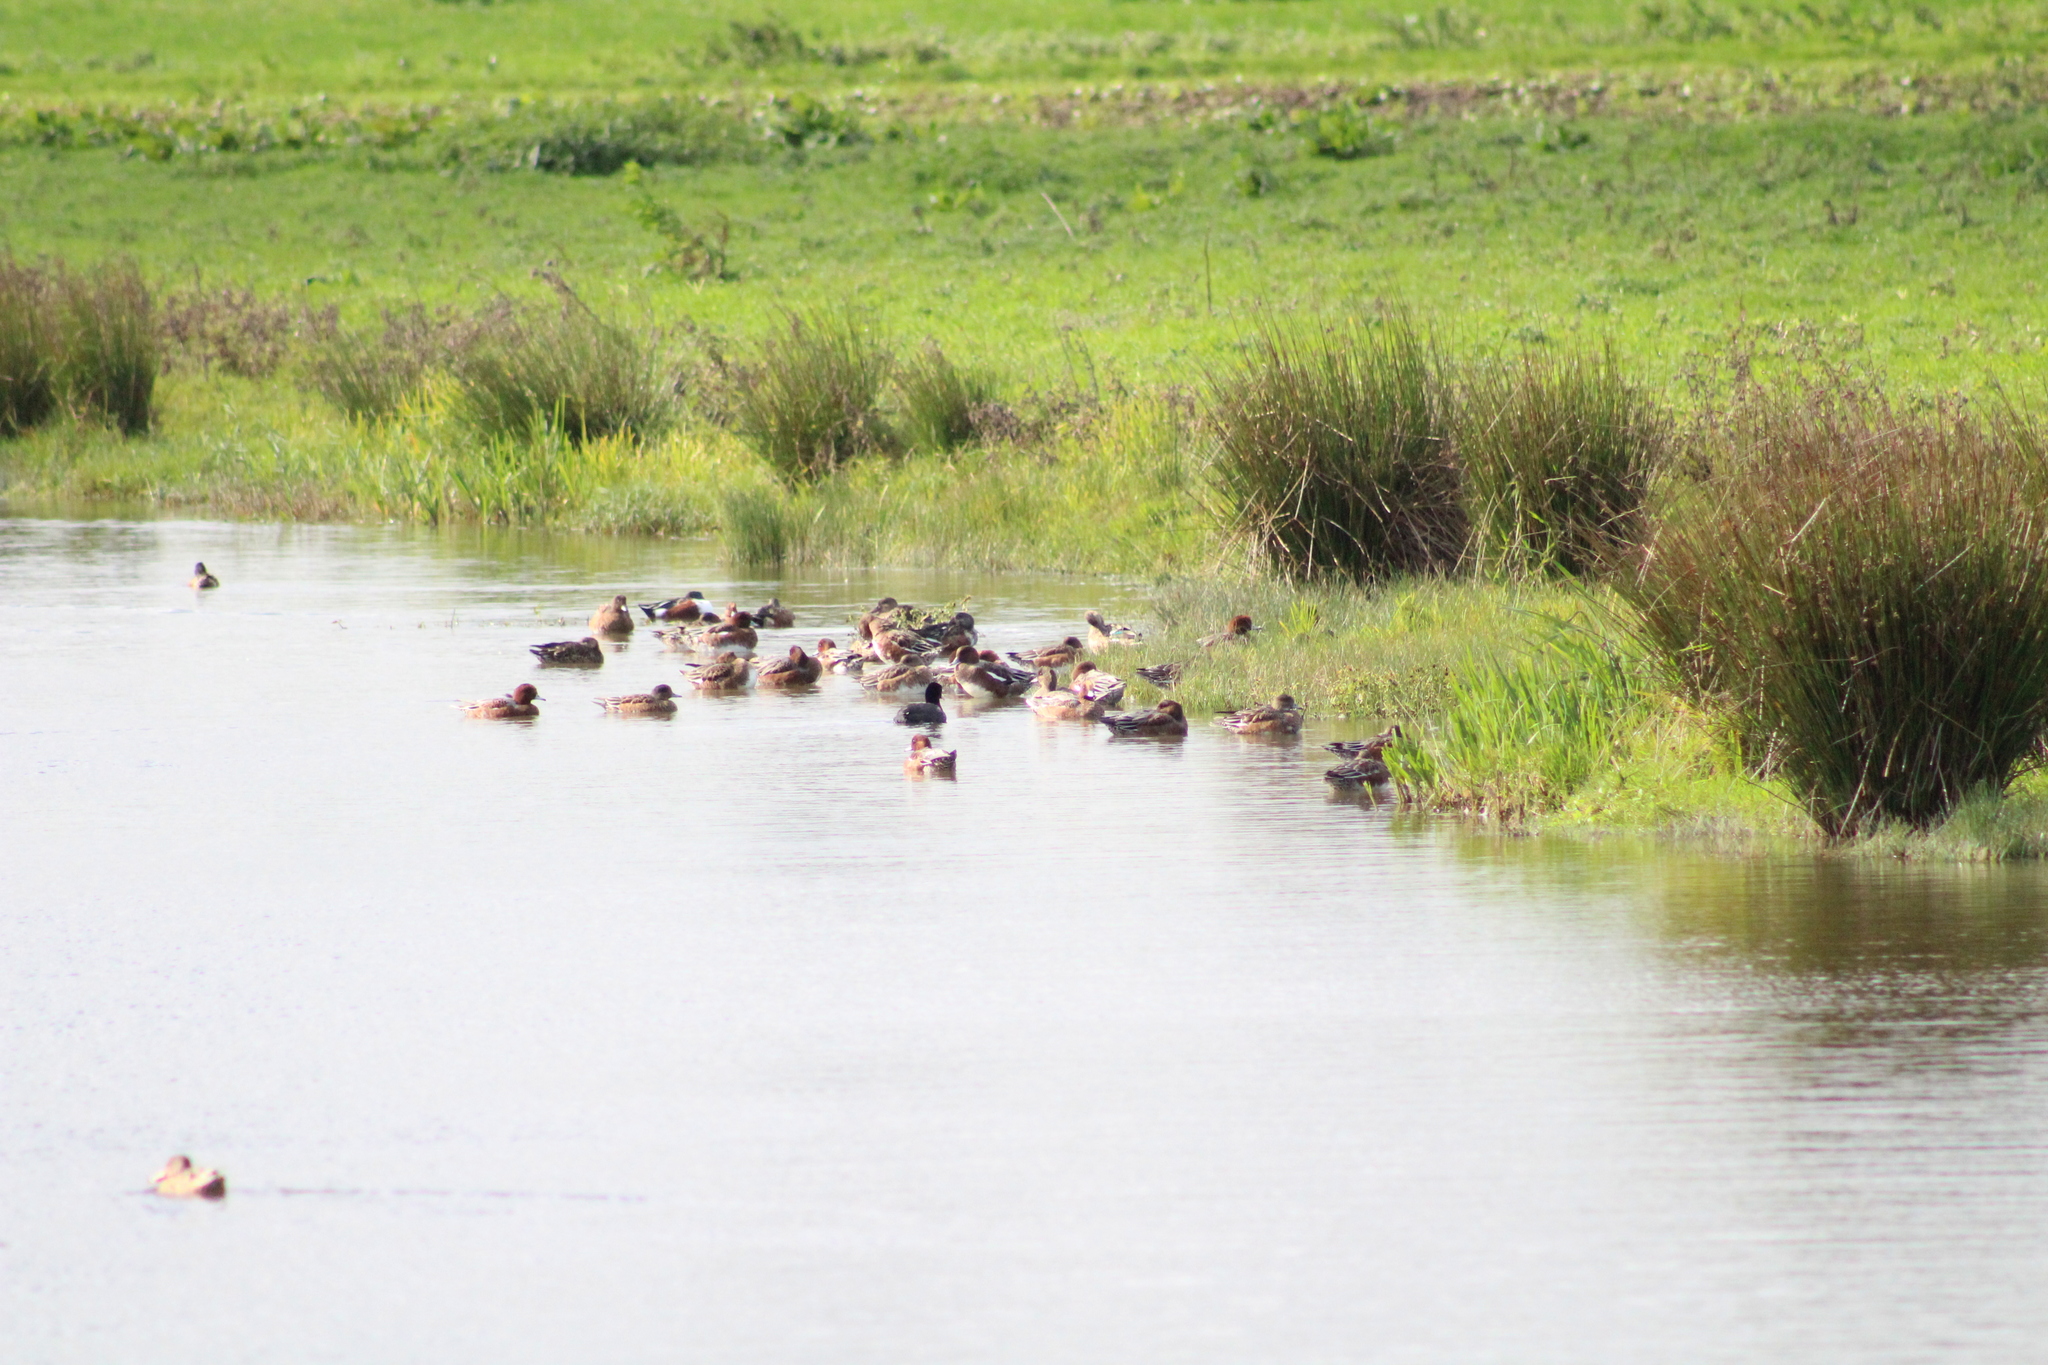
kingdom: Animalia
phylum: Chordata
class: Aves
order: Anseriformes
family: Anatidae
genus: Mareca
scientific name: Mareca penelope
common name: Eurasian wigeon
